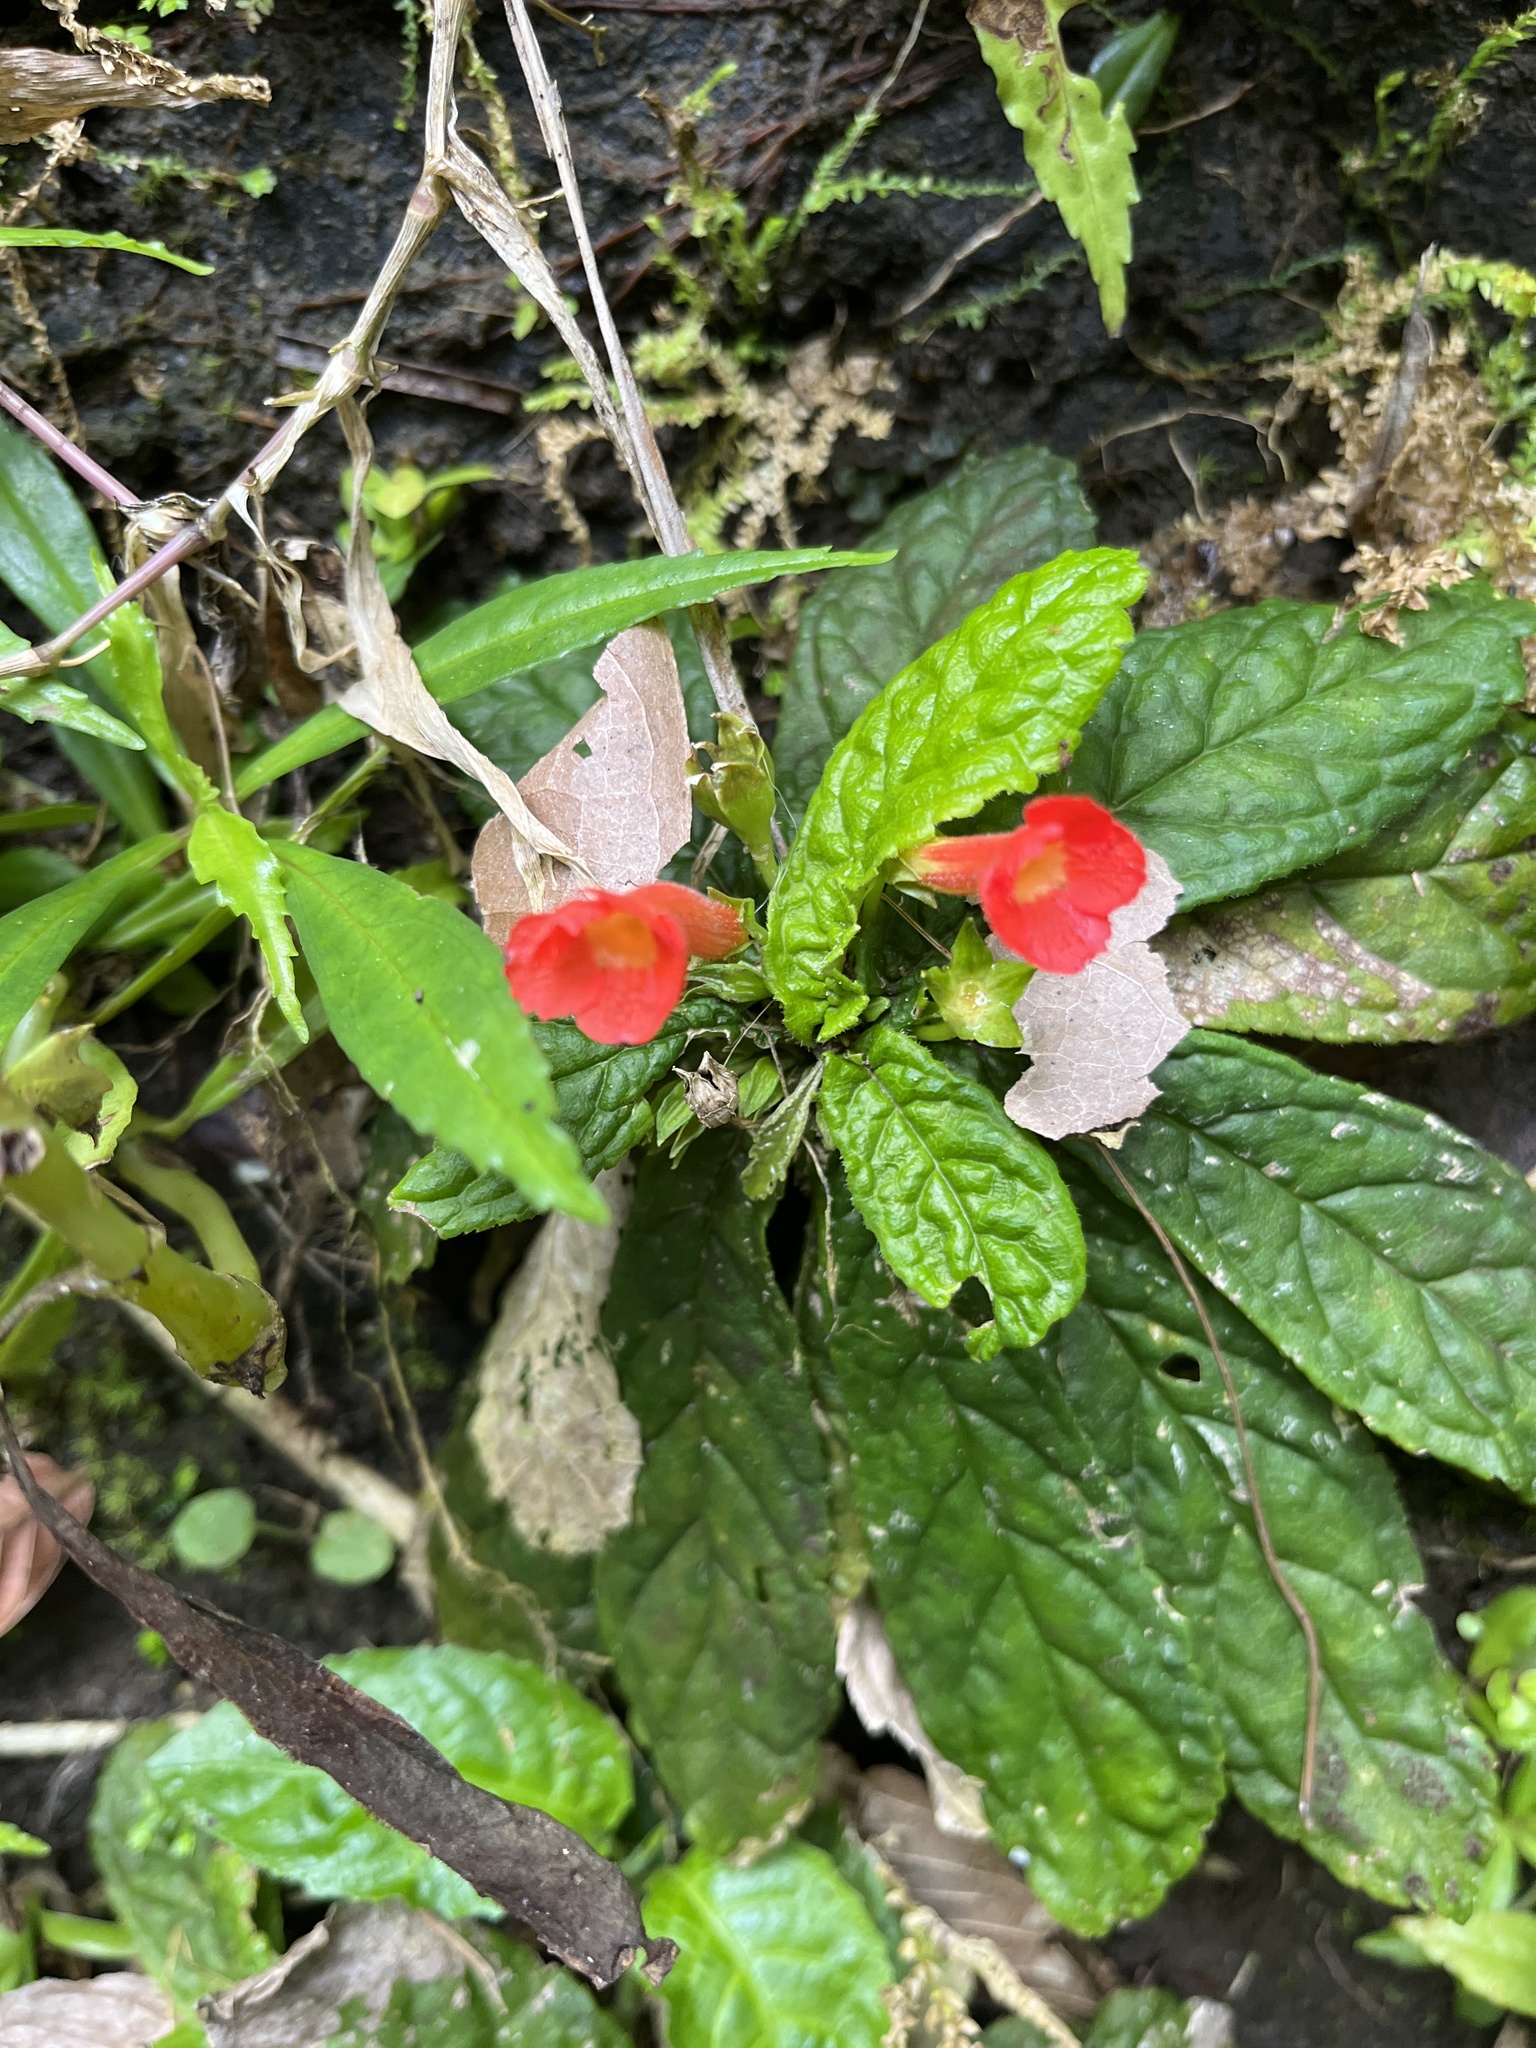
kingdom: Plantae
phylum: Tracheophyta
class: Magnoliopsida
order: Lamiales
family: Gesneriaceae
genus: Gesneria
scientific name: Gesneria reticulata
